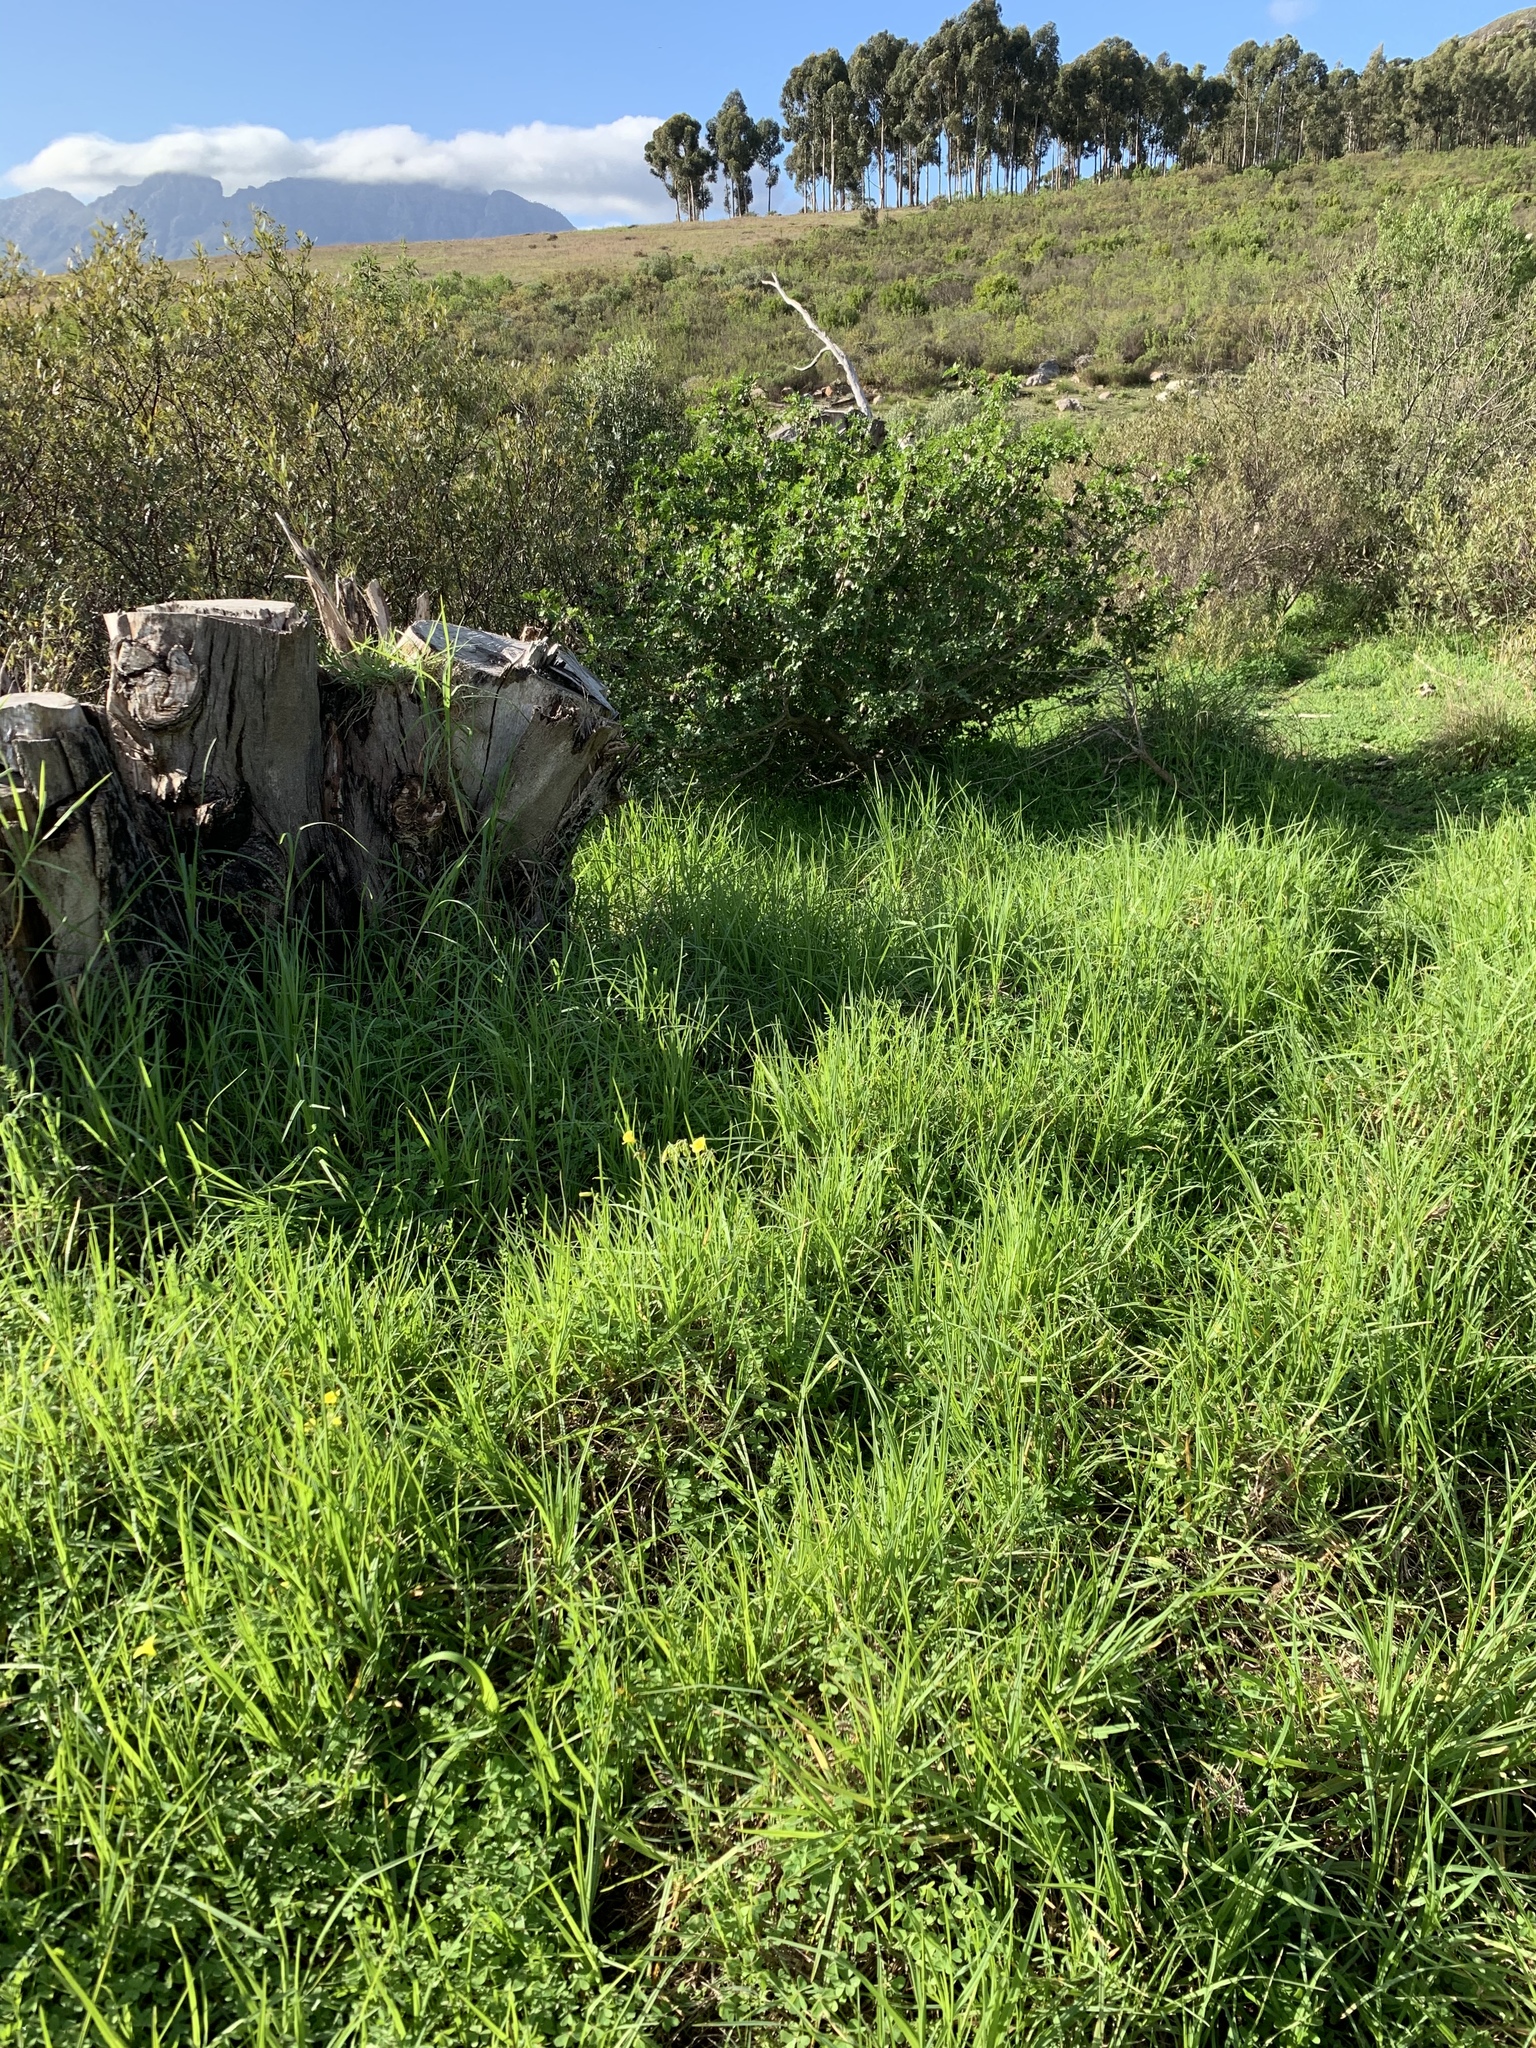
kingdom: Plantae
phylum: Tracheophyta
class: Liliopsida
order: Poales
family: Poaceae
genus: Cenchrus
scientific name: Cenchrus clandestinus
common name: Kikuyugrass
